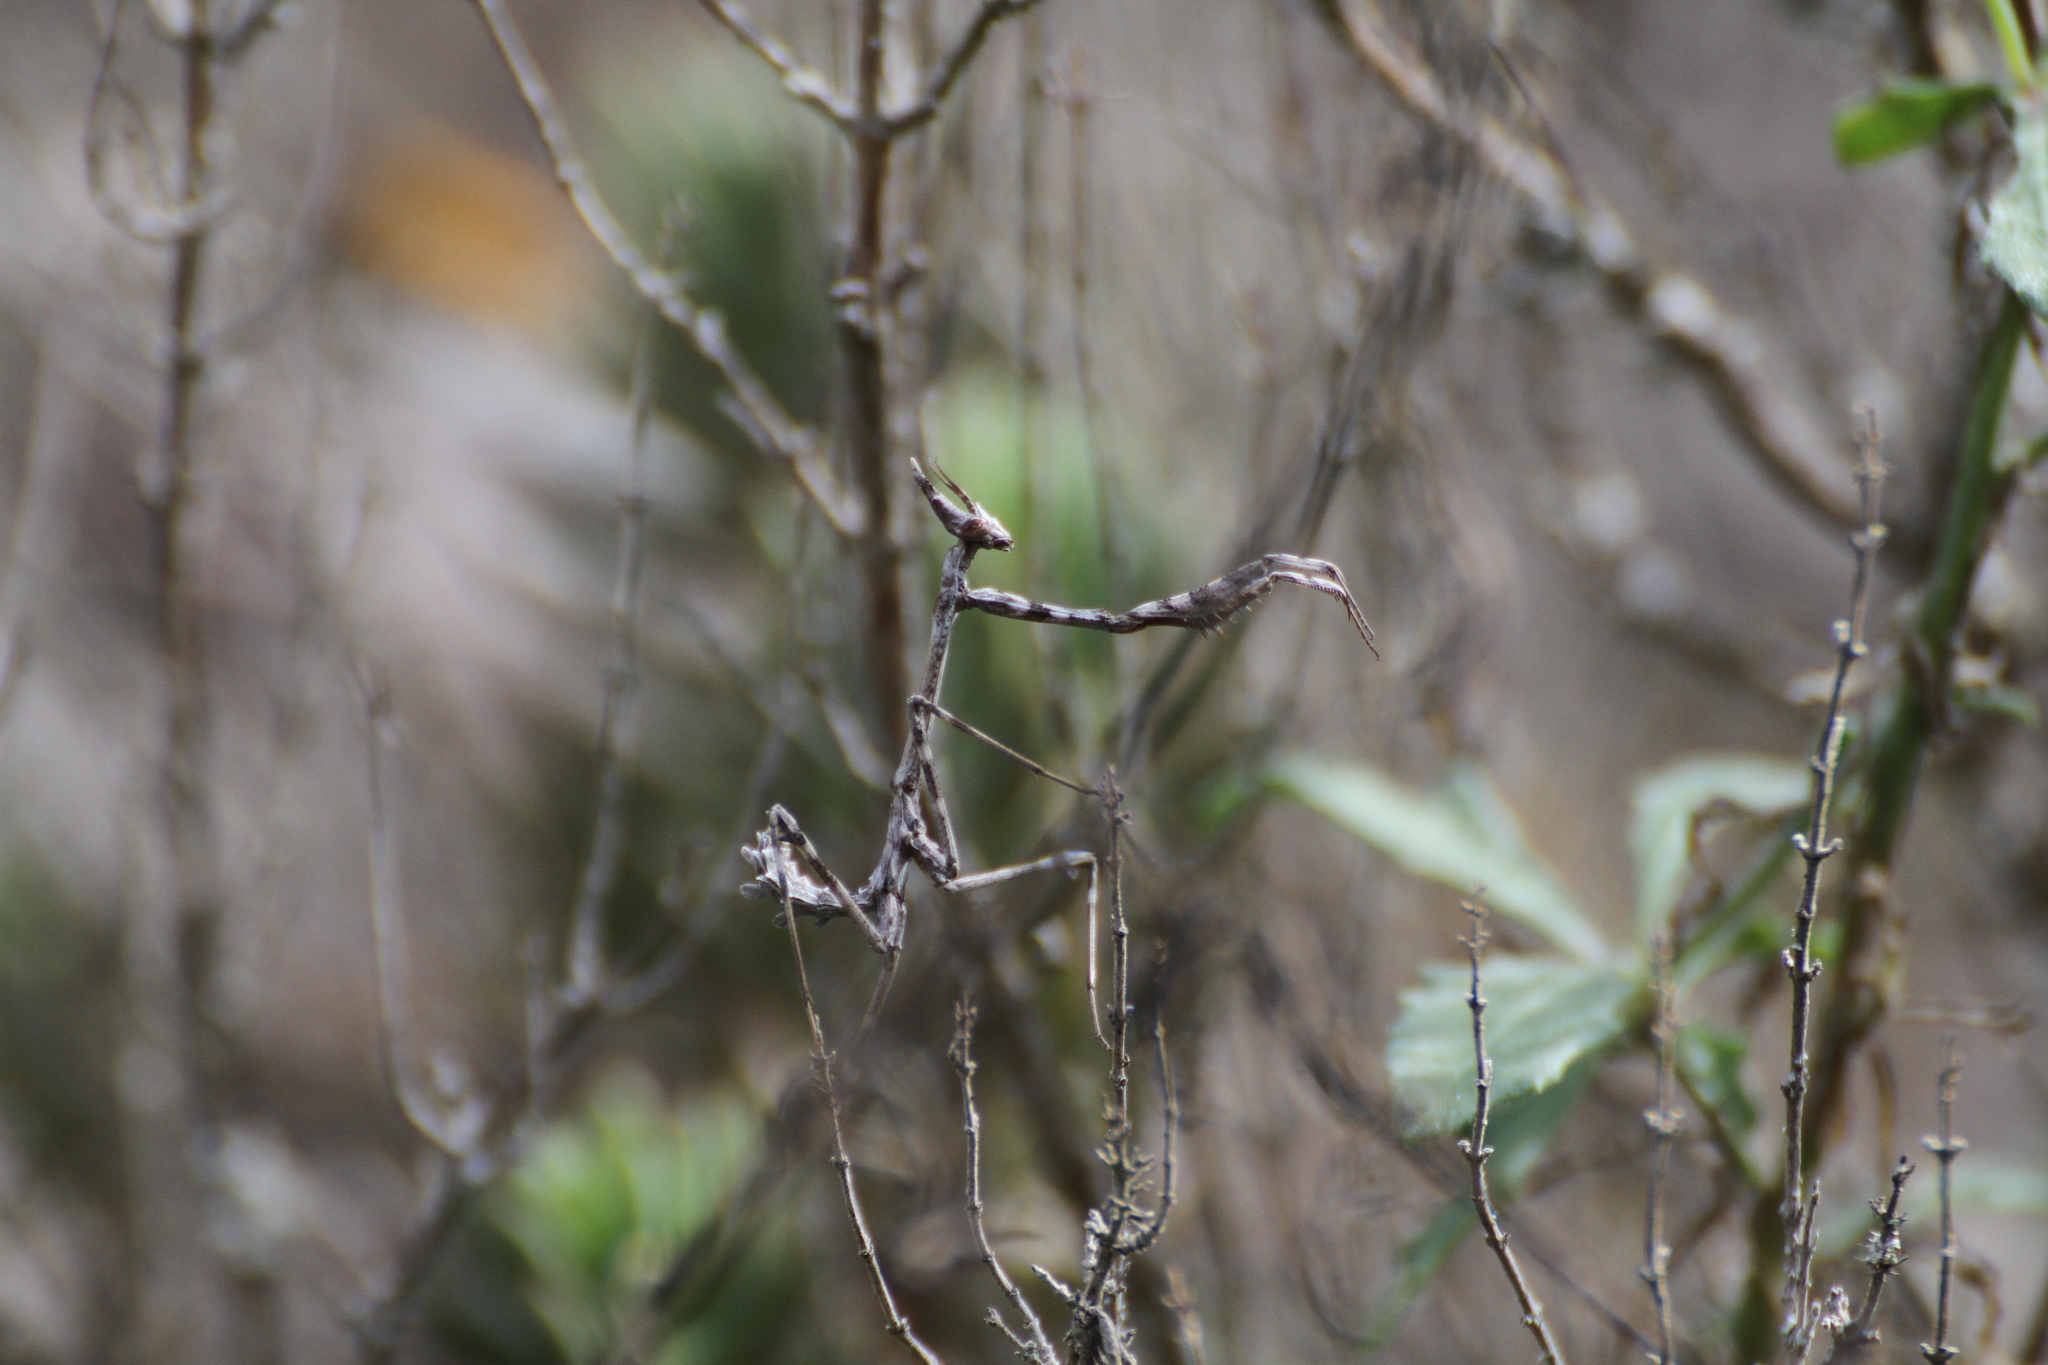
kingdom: Animalia
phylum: Arthropoda
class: Insecta
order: Mantodea
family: Empusidae
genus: Empusa
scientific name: Empusa pennata
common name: Conehead mantis
